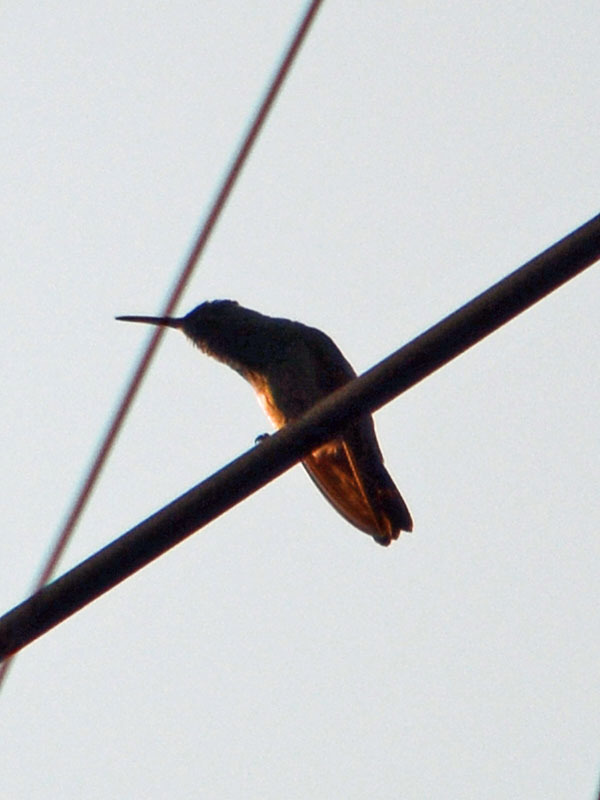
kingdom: Animalia
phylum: Chordata
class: Aves
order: Apodiformes
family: Trochilidae
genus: Saucerottia
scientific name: Saucerottia beryllina
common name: Berylline hummingbird
